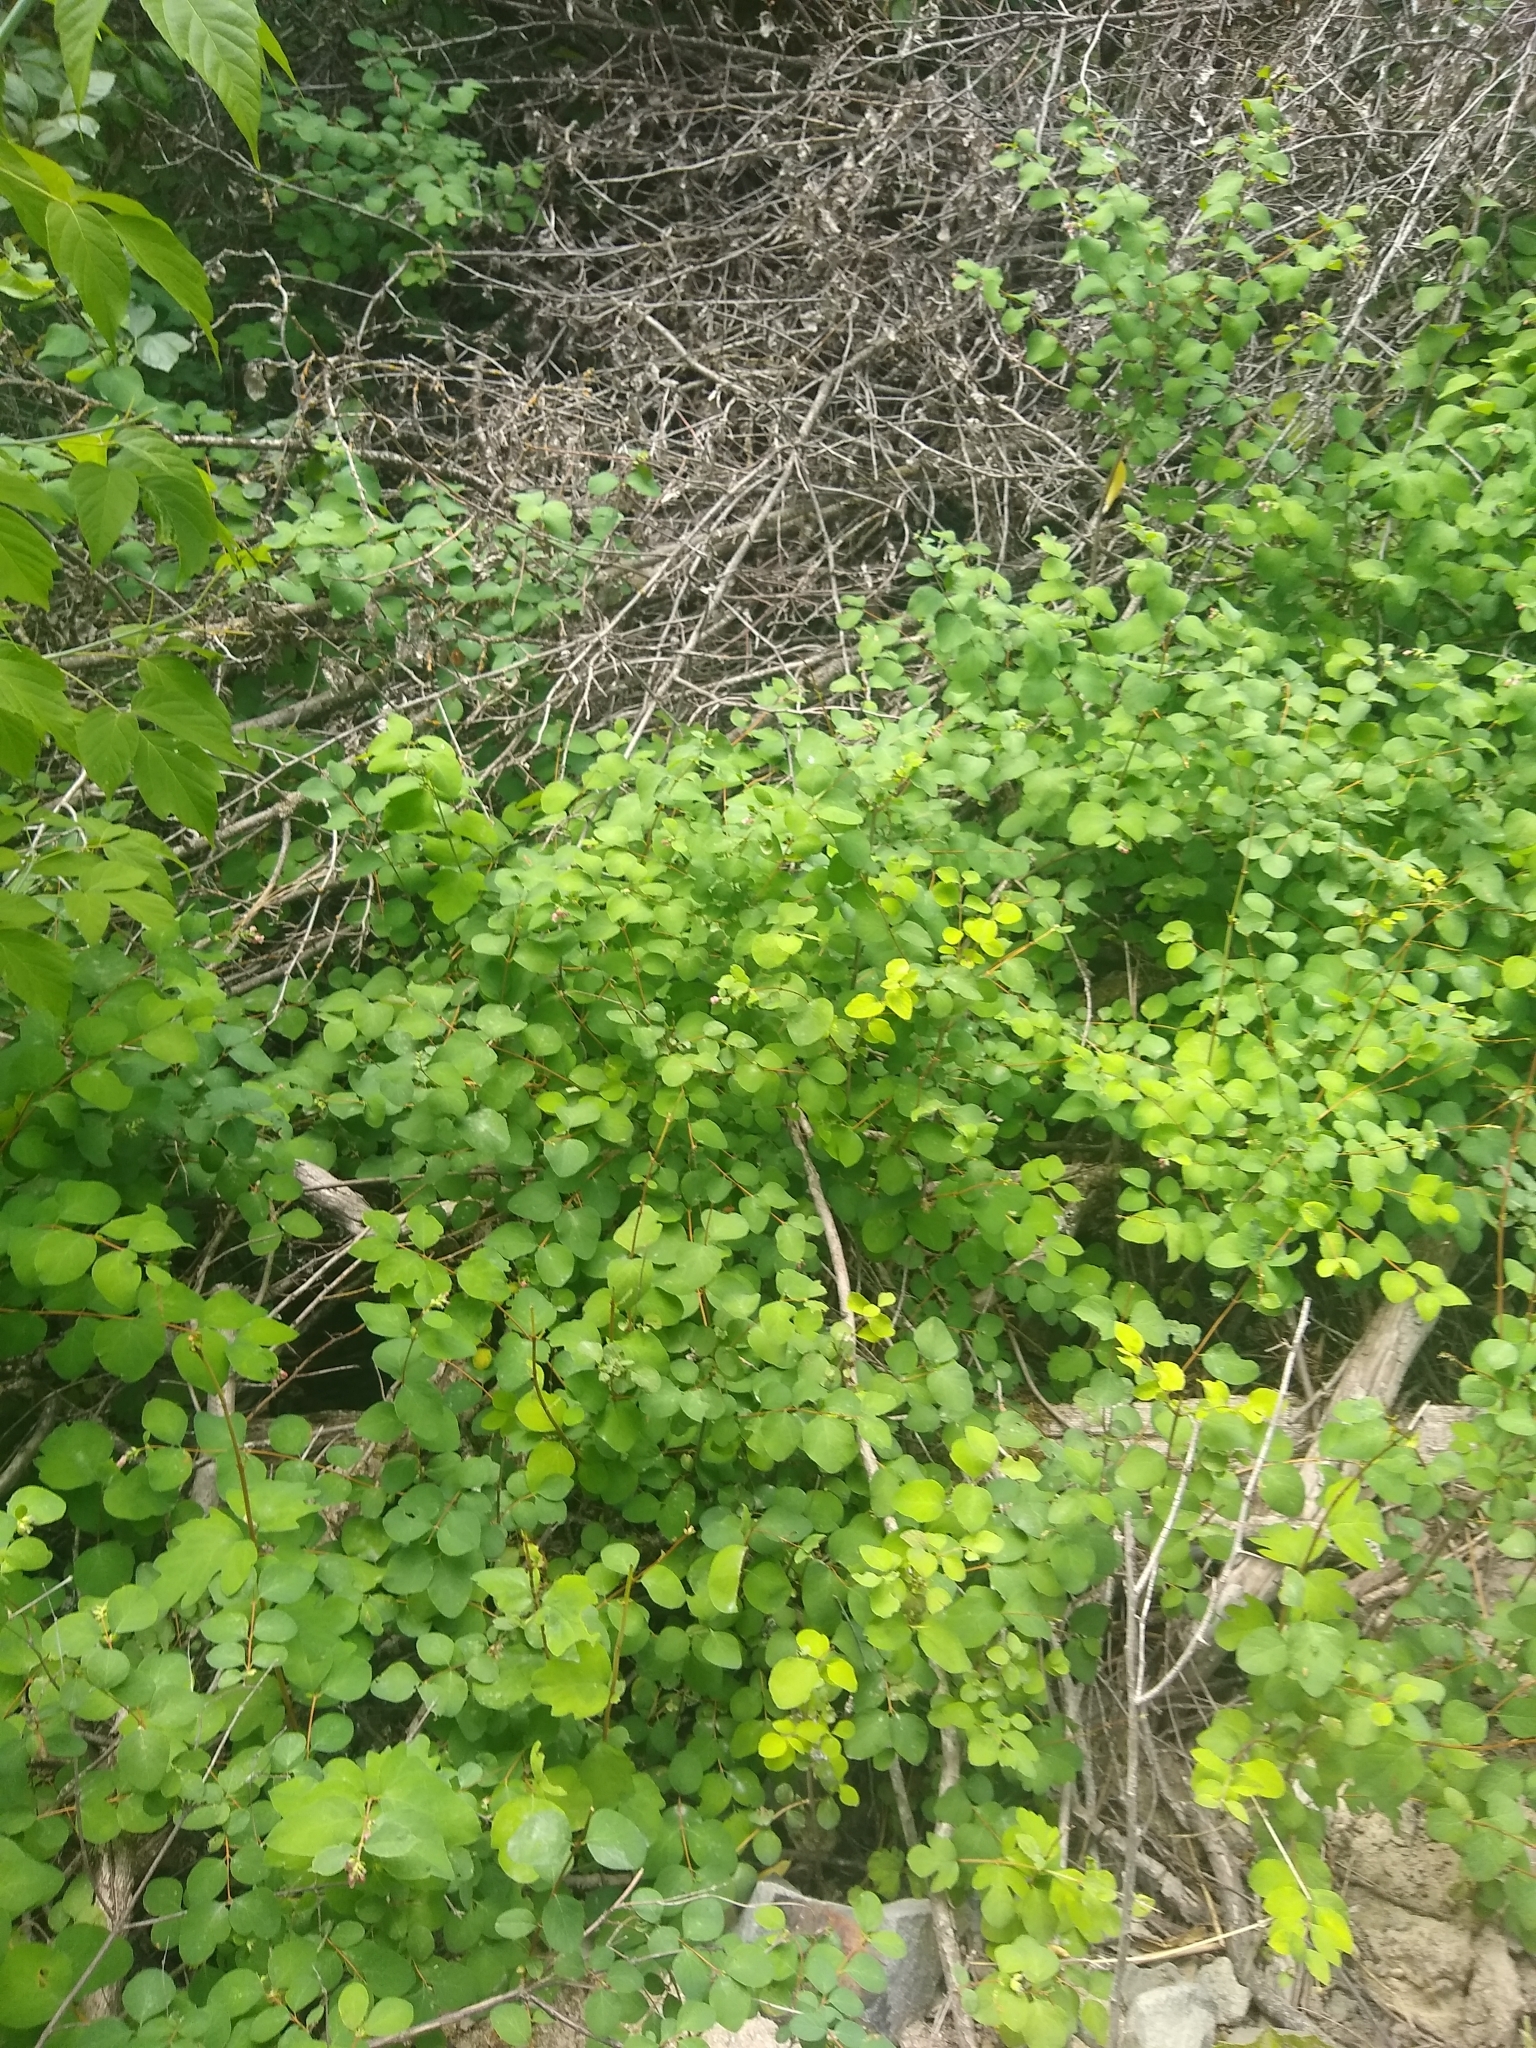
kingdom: Plantae
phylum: Tracheophyta
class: Magnoliopsida
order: Dipsacales
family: Caprifoliaceae
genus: Symphoricarpos
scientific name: Symphoricarpos albus
